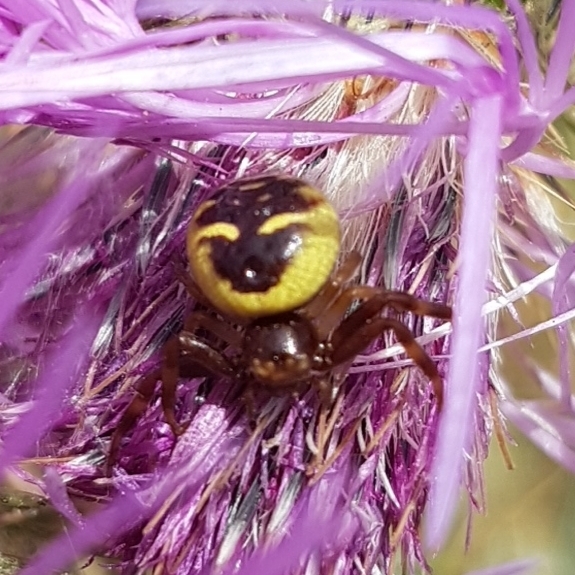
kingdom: Animalia
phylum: Arthropoda
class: Arachnida
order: Araneae
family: Thomisidae
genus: Synema
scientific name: Synema globosum
